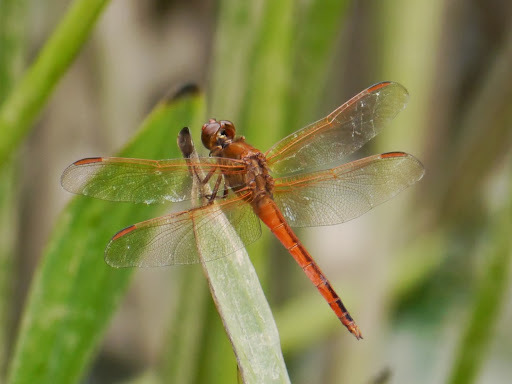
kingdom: Animalia
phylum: Arthropoda
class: Insecta
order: Odonata
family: Libellulidae
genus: Libellula
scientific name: Libellula needhami
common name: Needham's skimmer
